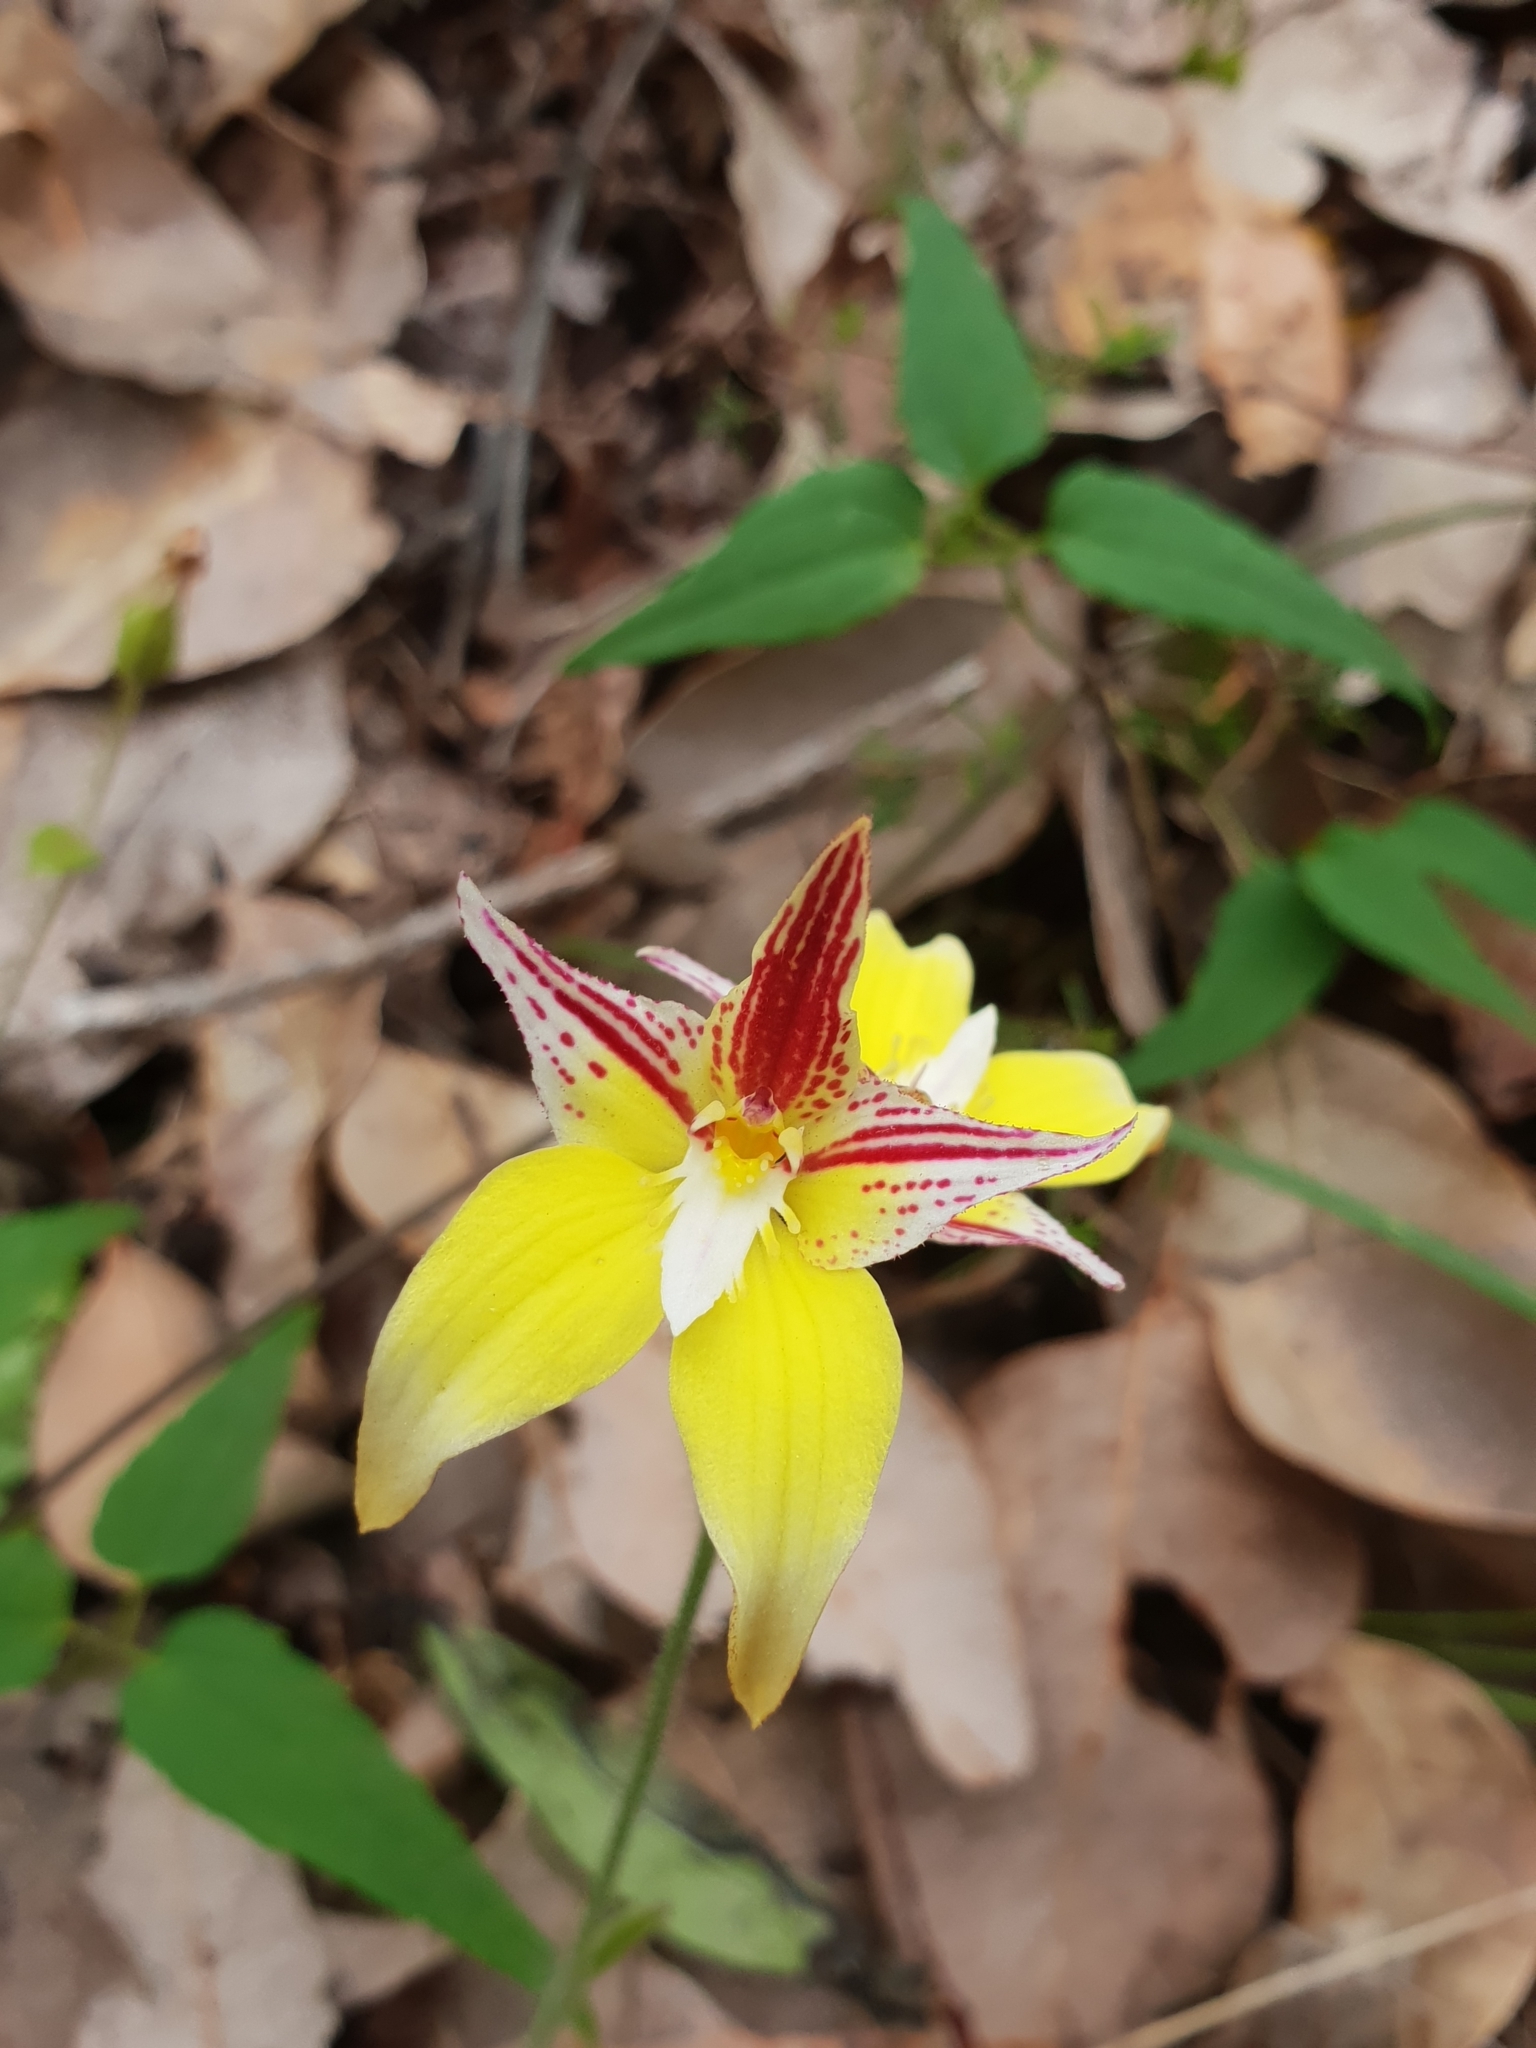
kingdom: Plantae
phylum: Tracheophyta
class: Liliopsida
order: Asparagales
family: Orchidaceae
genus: Caladenia
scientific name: Caladenia flava
